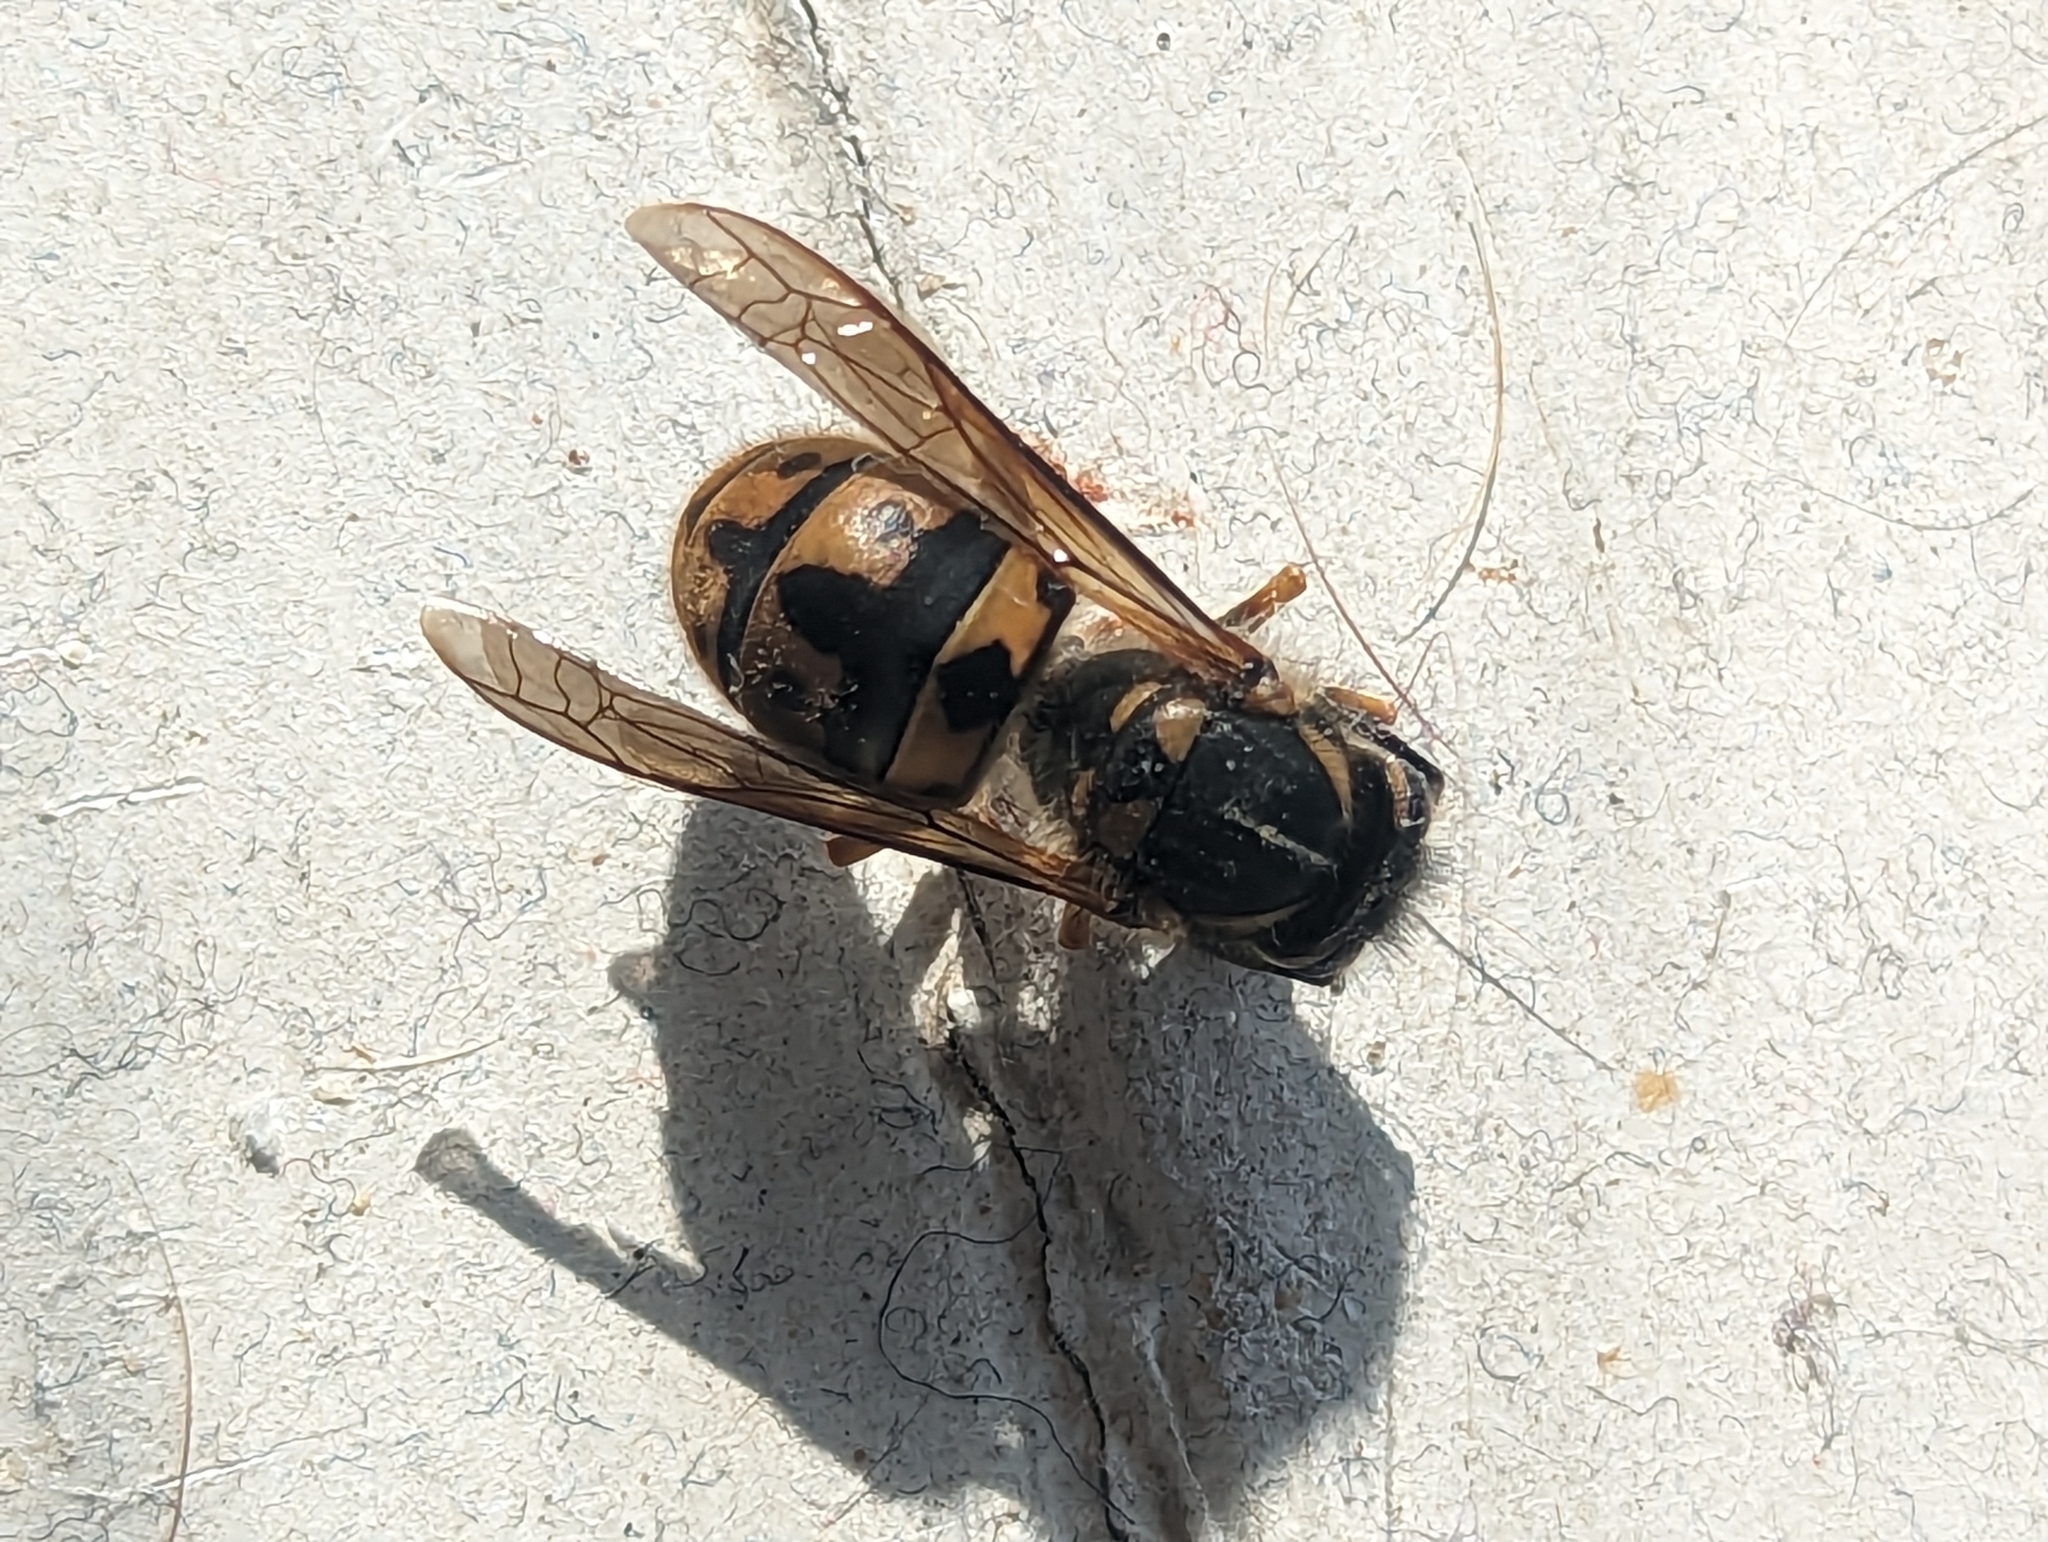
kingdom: Animalia
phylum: Arthropoda
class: Insecta
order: Hymenoptera
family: Vespidae
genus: Vespula
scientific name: Vespula germanica
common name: German wasp
